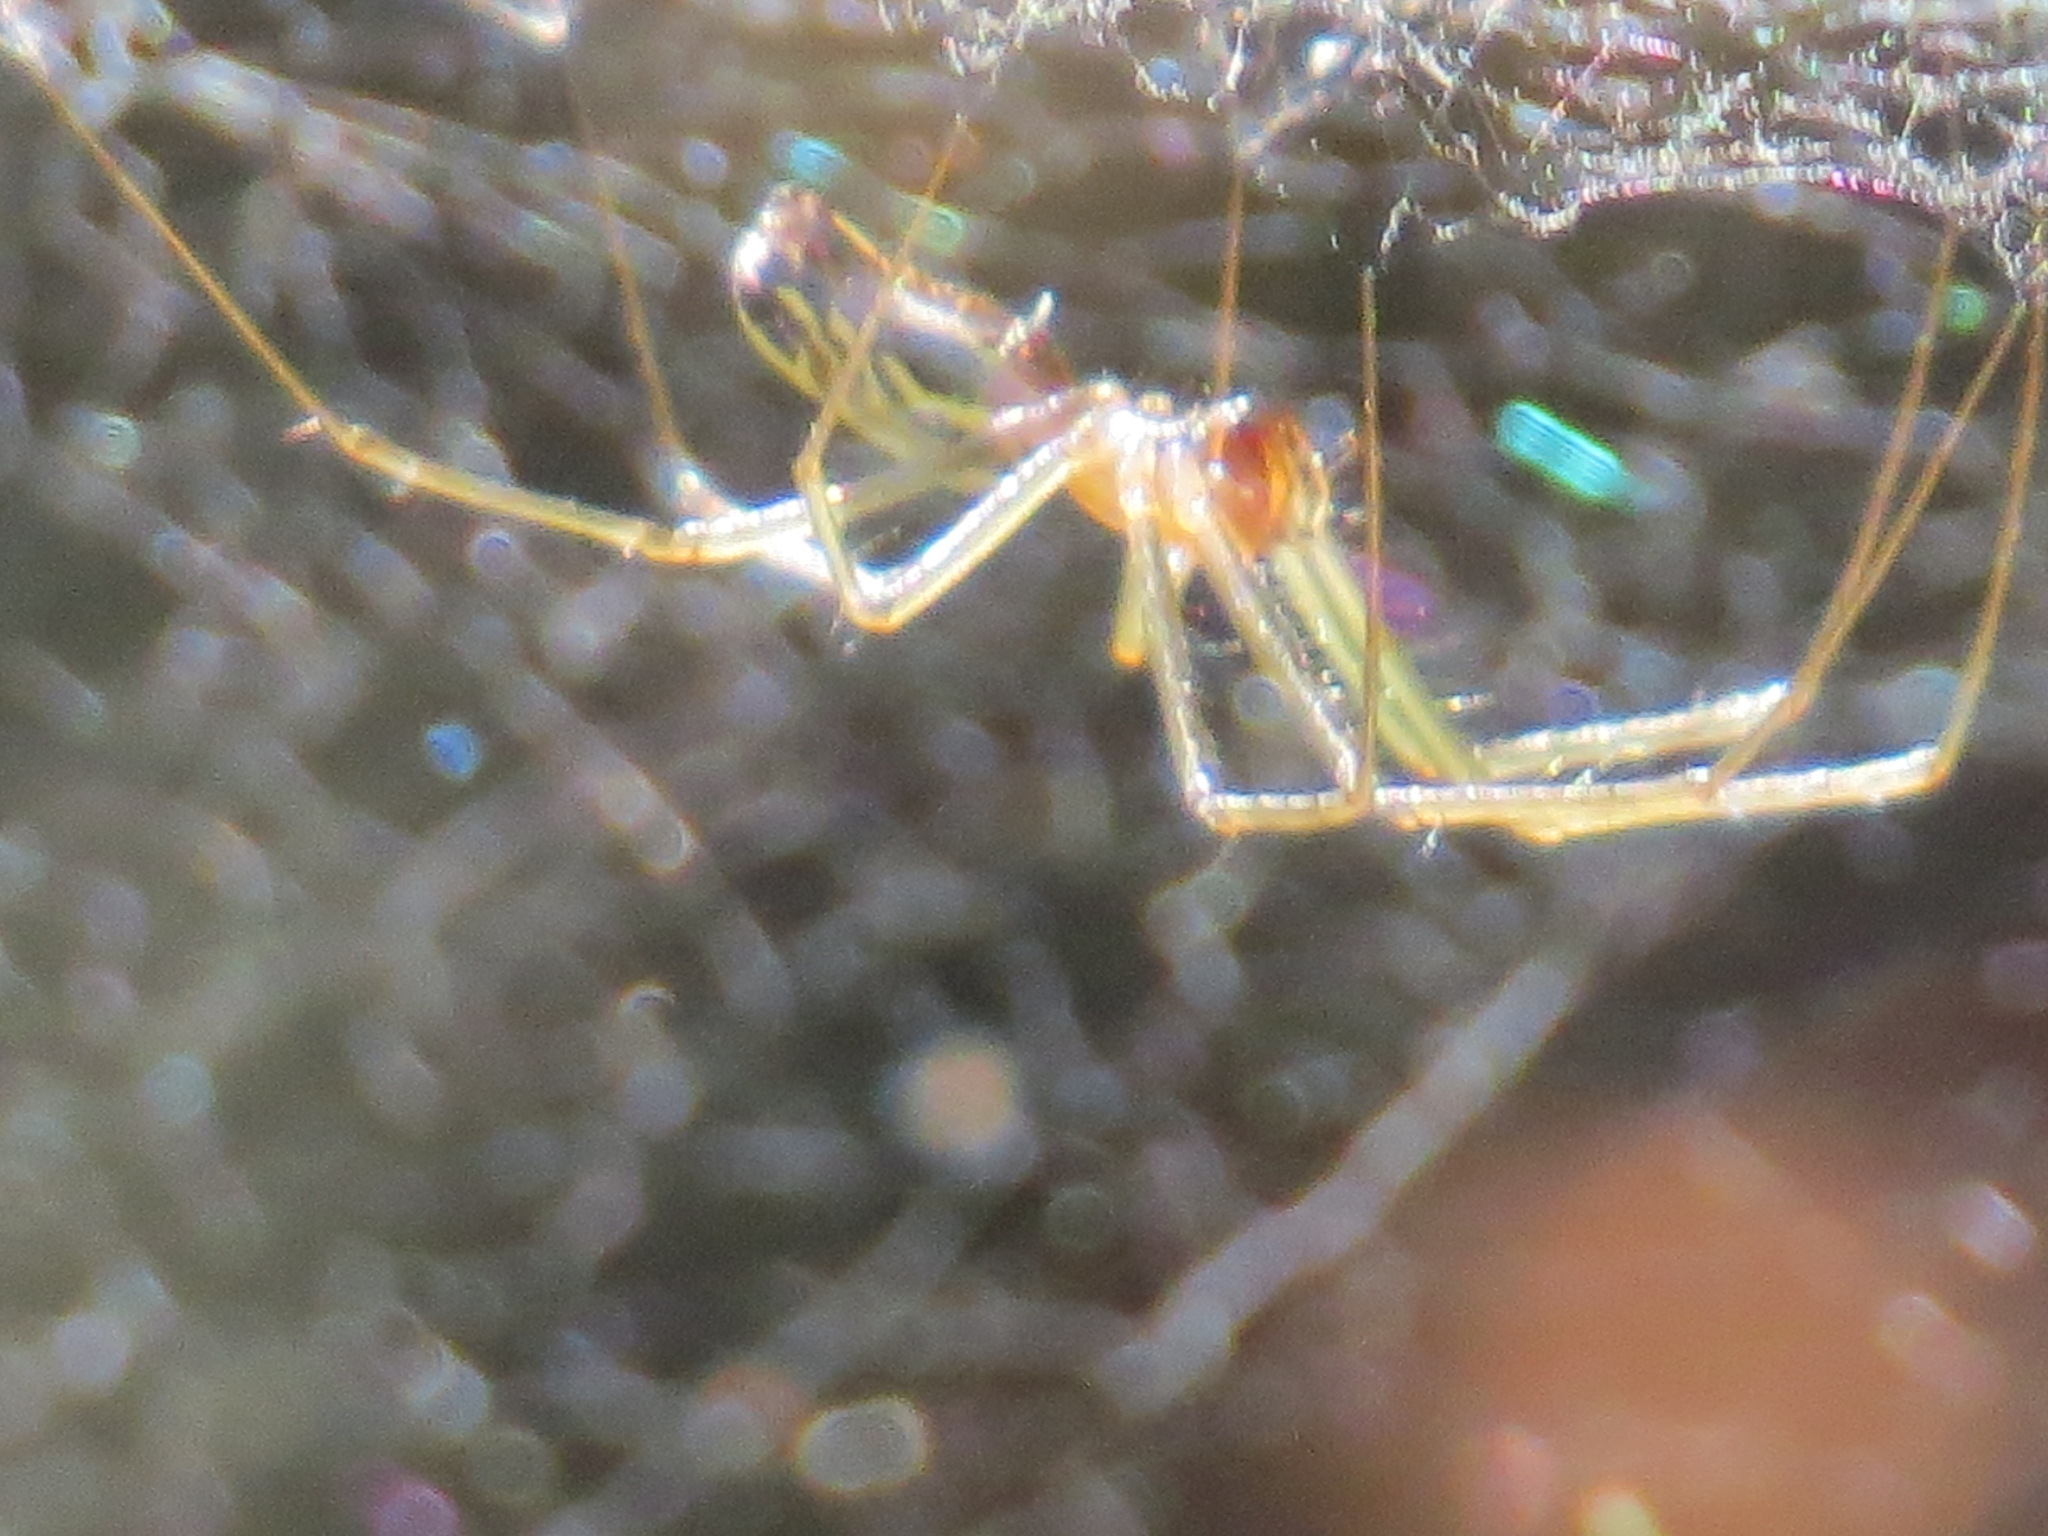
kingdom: Animalia
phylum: Arthropoda
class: Arachnida
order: Araneae
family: Linyphiidae
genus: Neriene
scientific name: Neriene litigiosa
